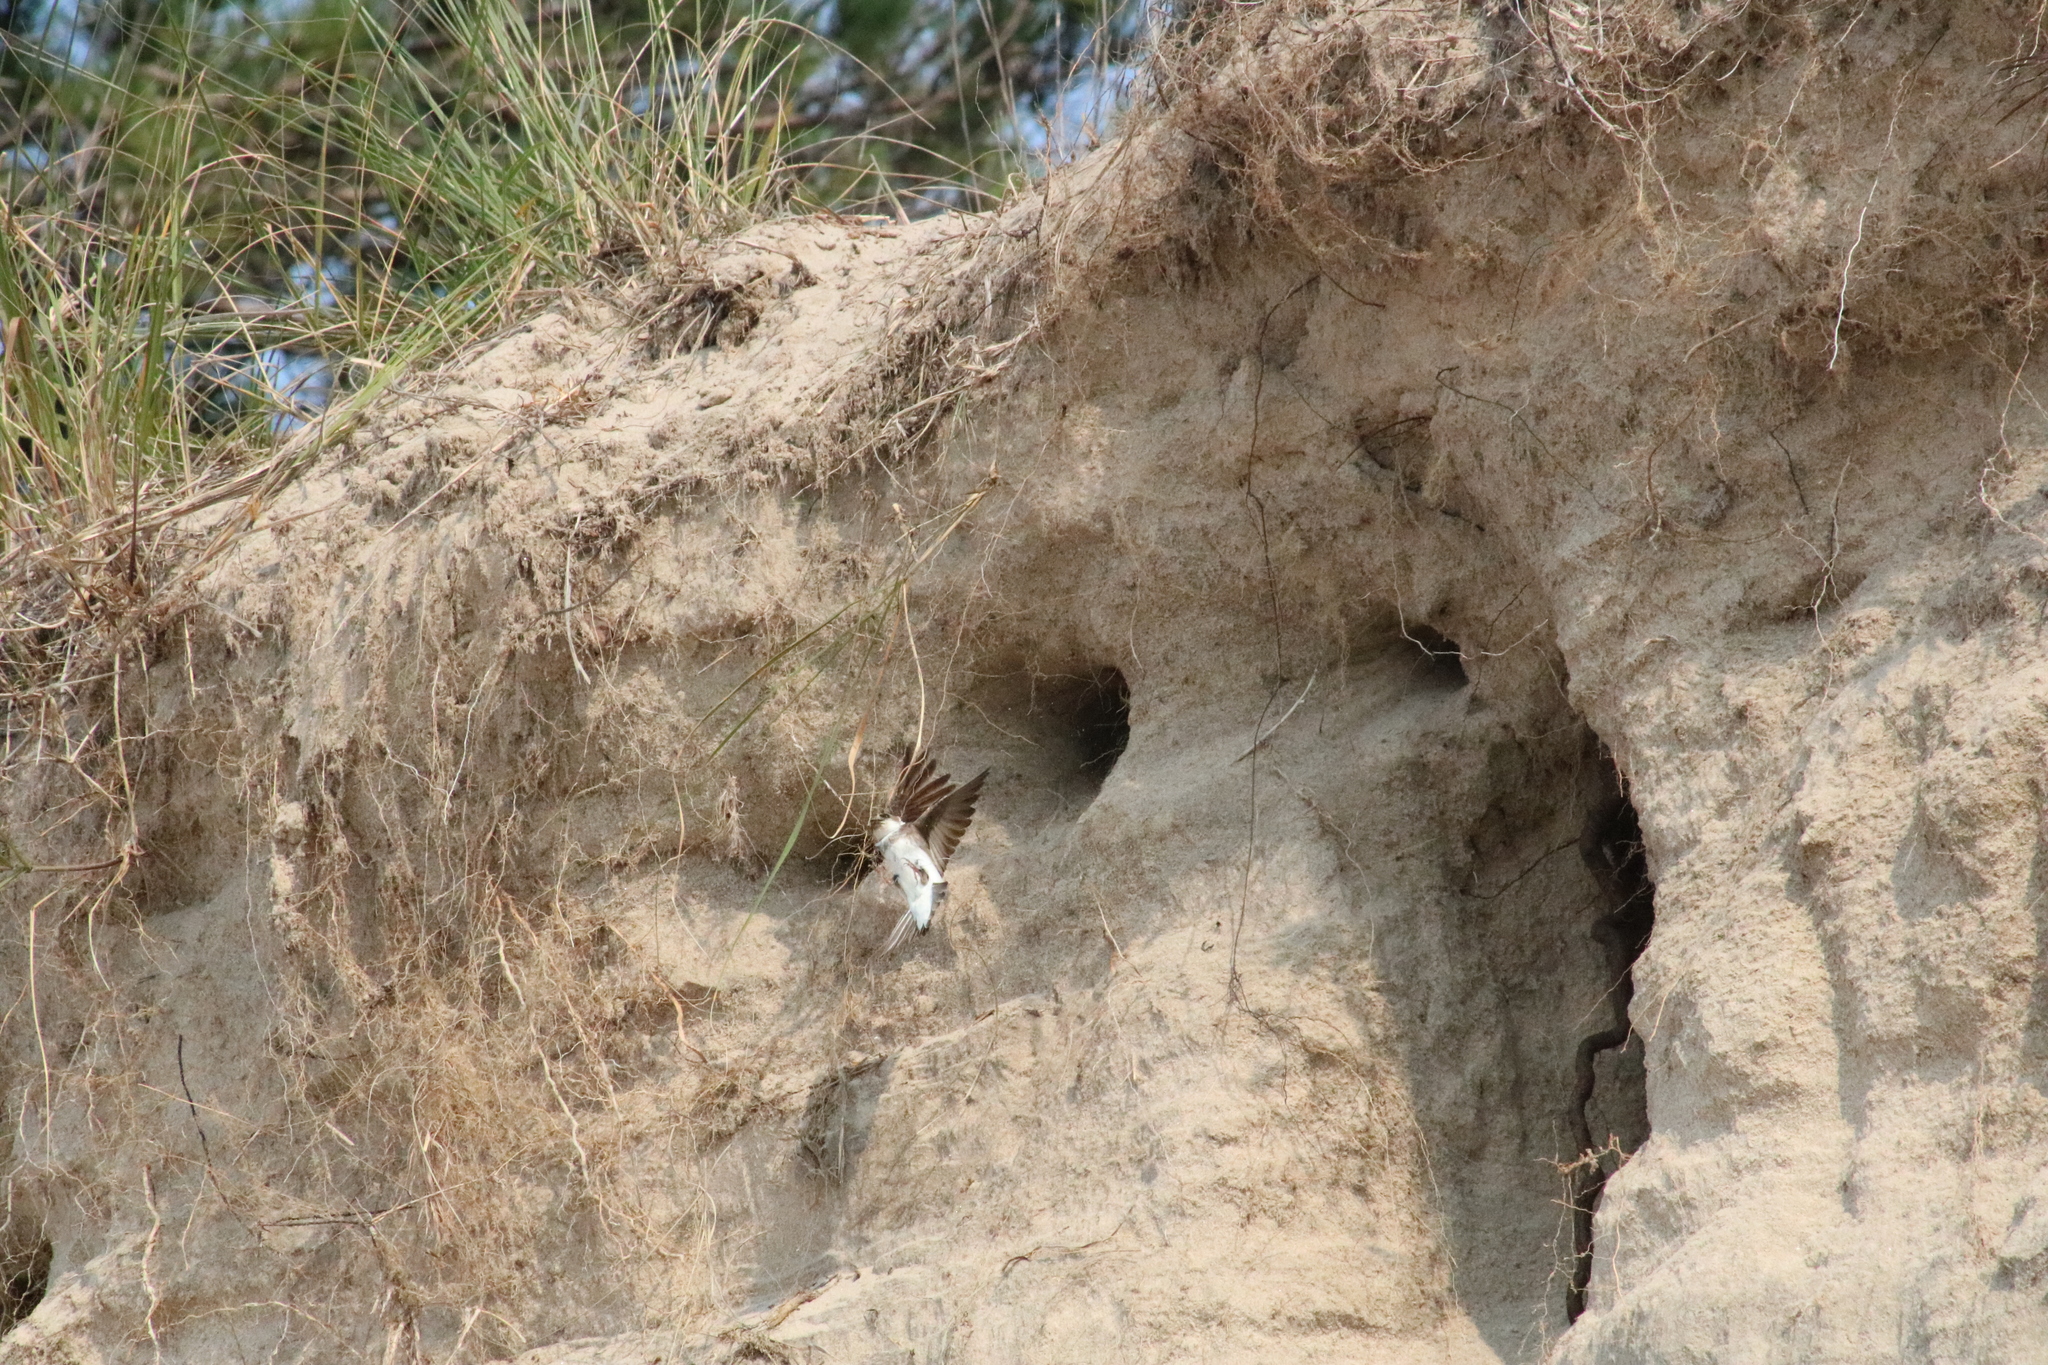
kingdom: Animalia
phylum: Chordata
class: Aves
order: Passeriformes
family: Hirundinidae
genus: Riparia
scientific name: Riparia riparia
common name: Sand martin
